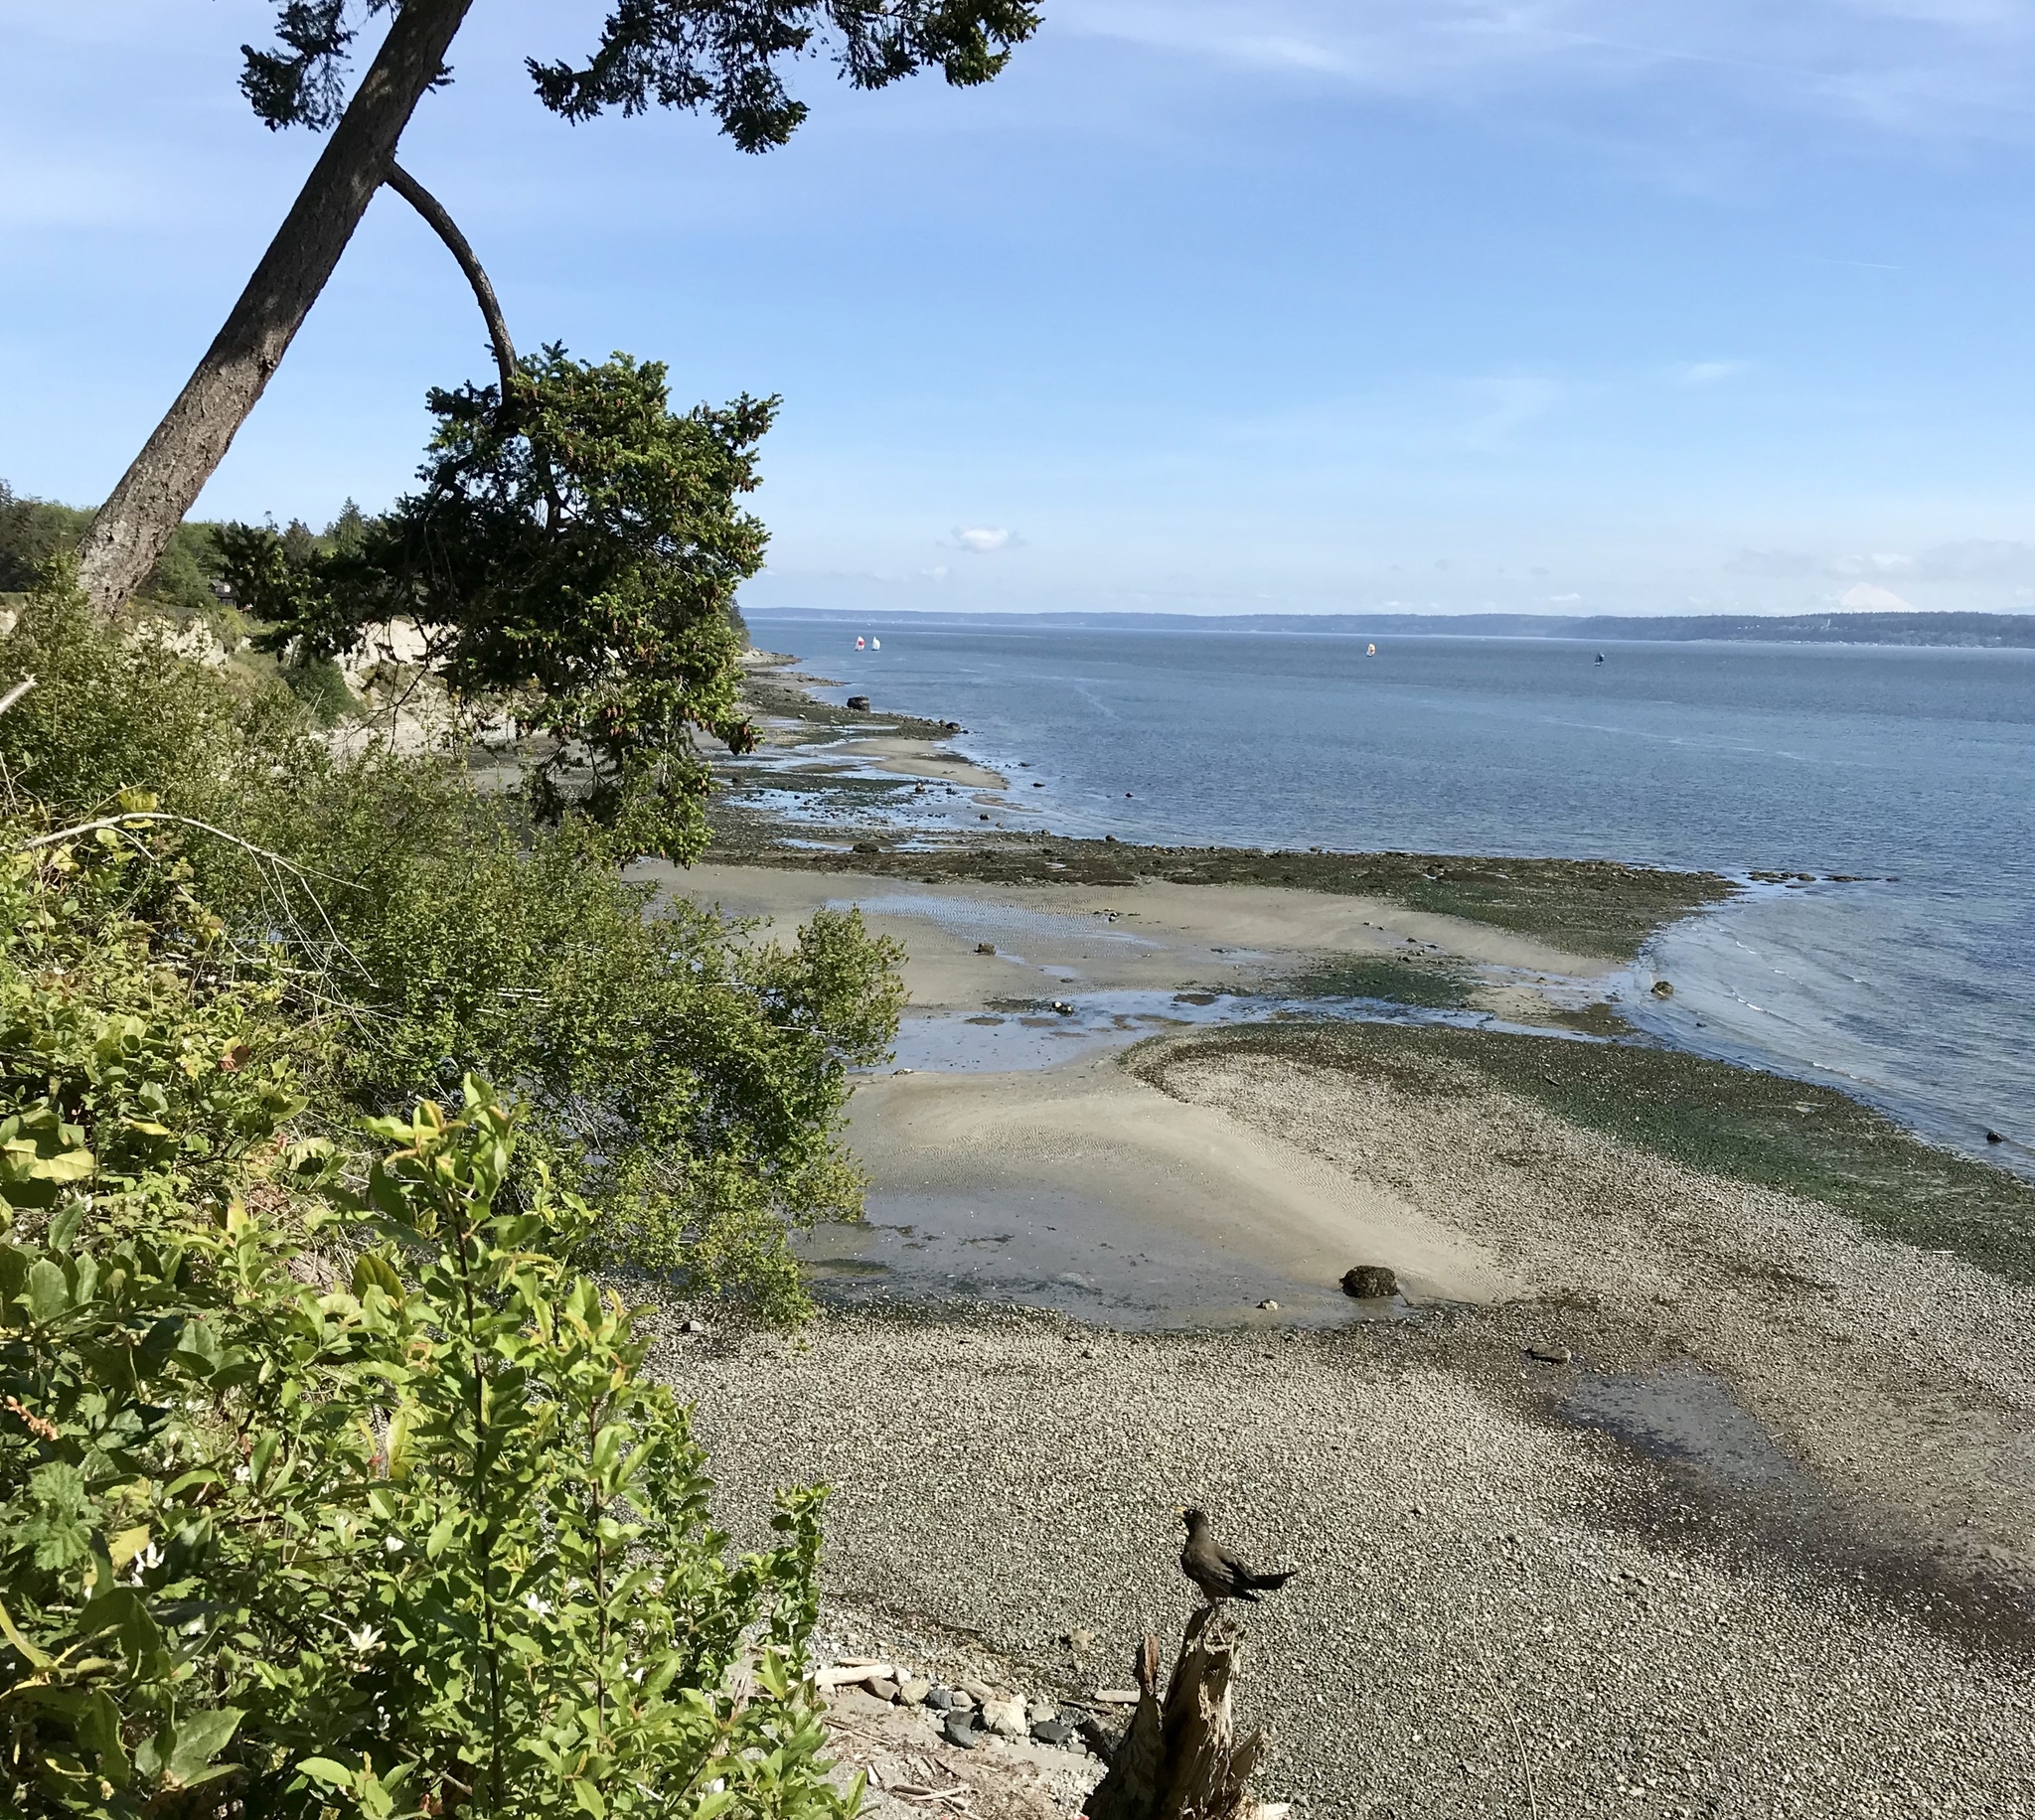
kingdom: Animalia
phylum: Chordata
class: Aves
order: Passeriformes
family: Turdidae
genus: Turdus
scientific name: Turdus migratorius
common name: American robin
